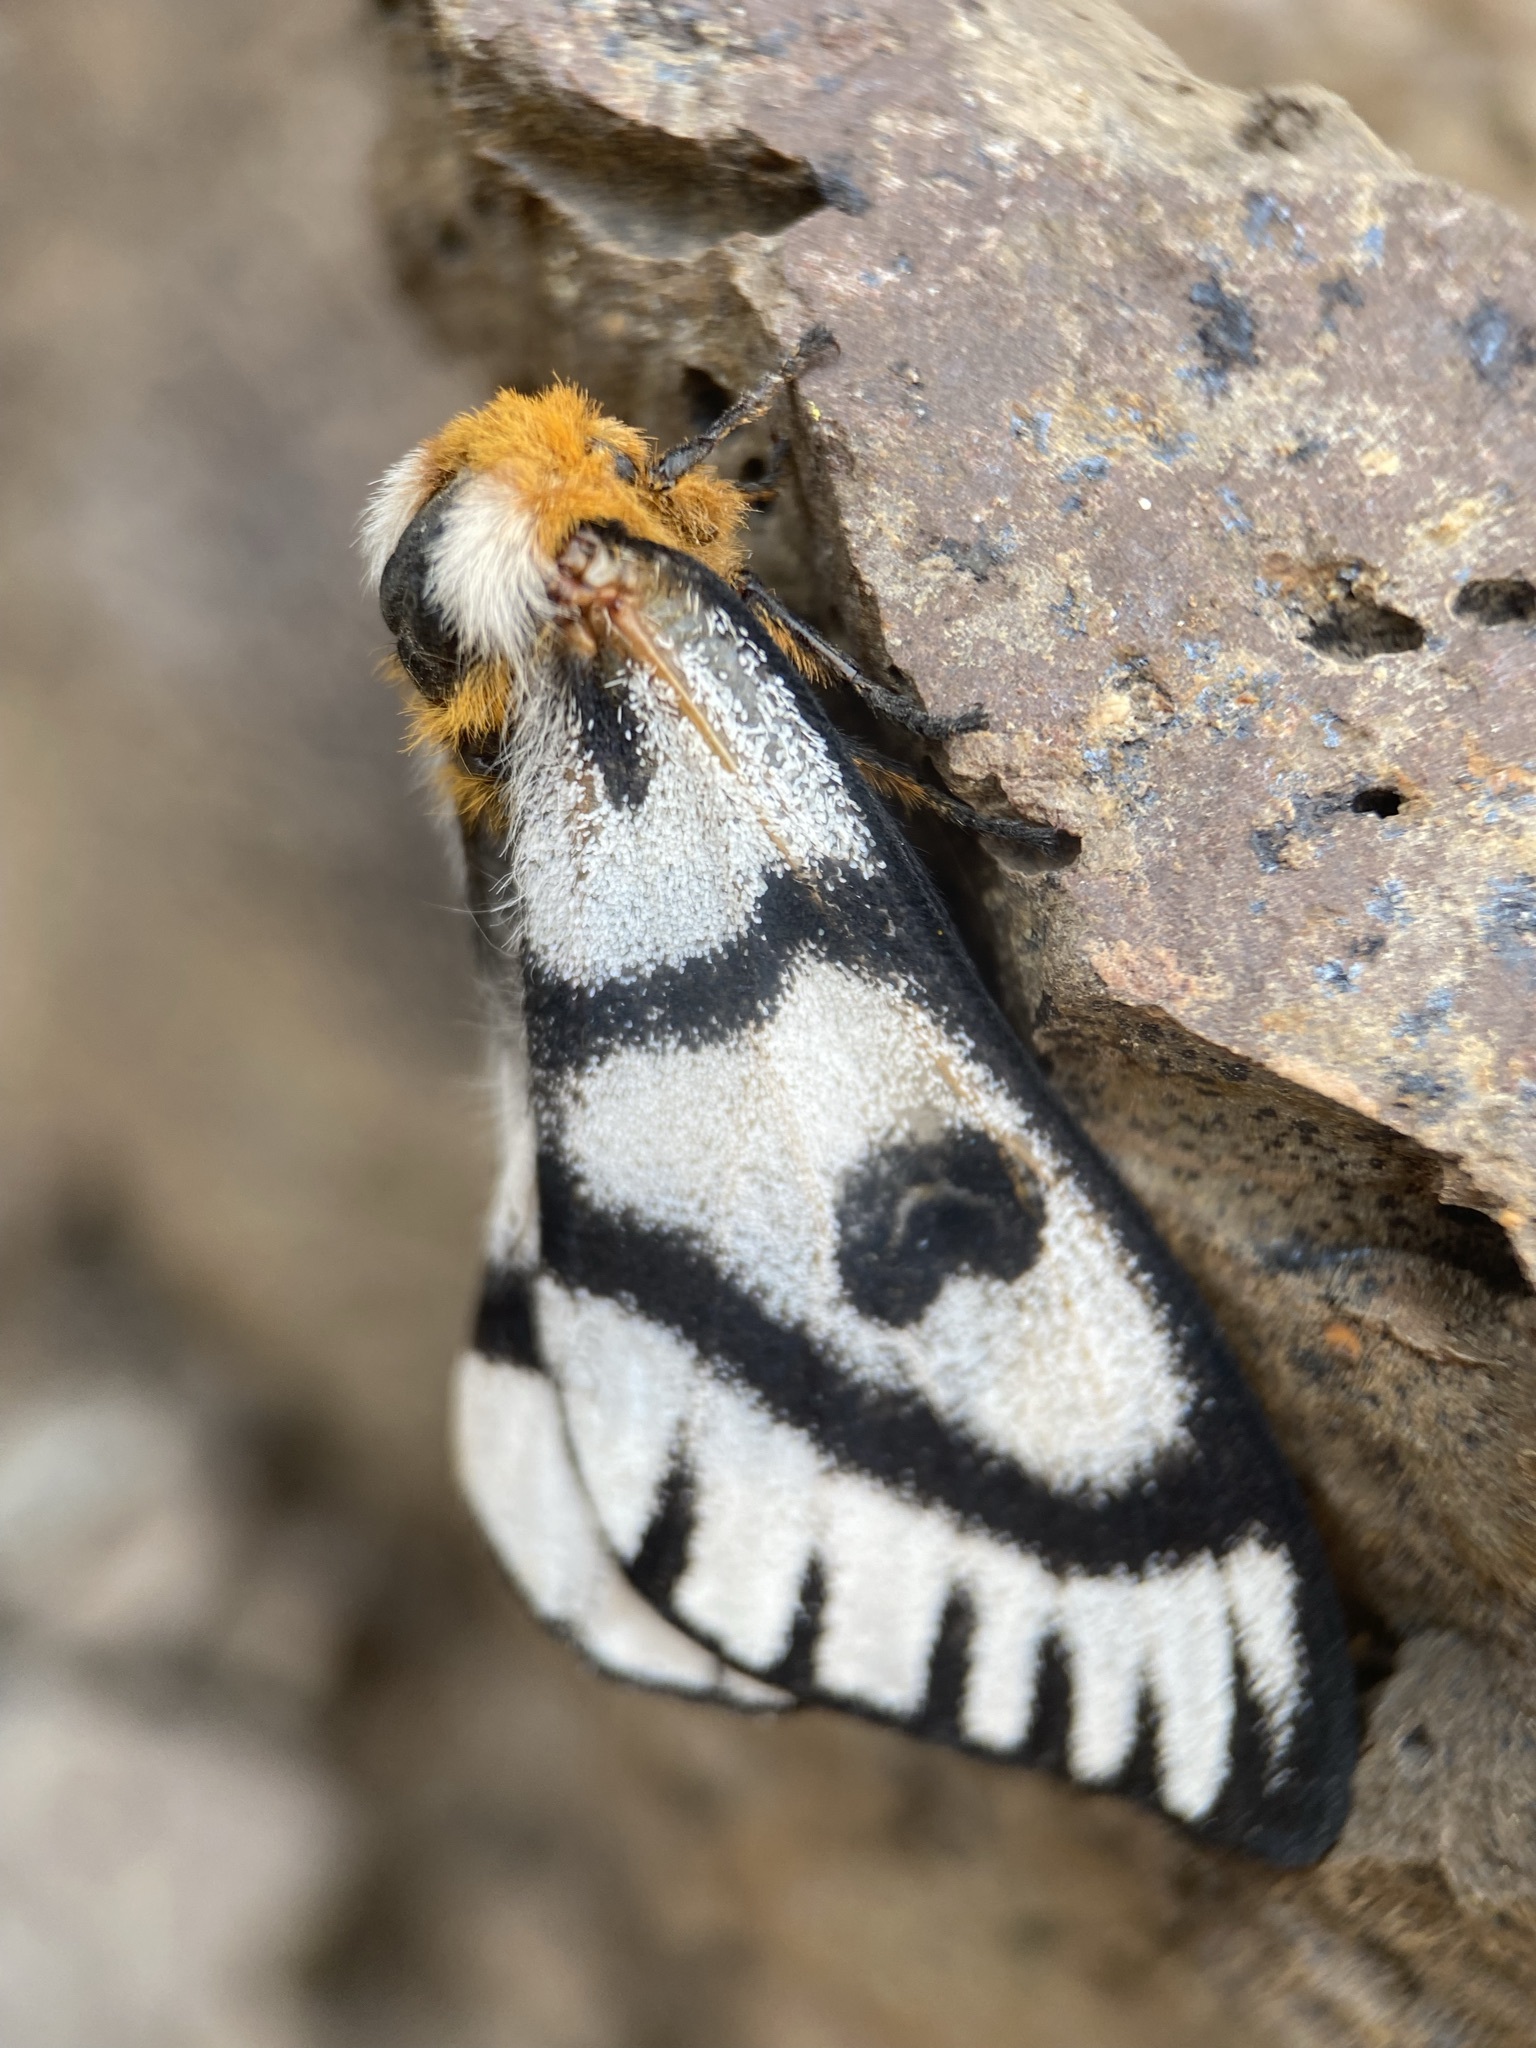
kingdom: Animalia
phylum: Arthropoda
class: Insecta
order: Lepidoptera
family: Saturniidae
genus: Hemileuca
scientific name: Hemileuca hera
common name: Hera sheepmoth
